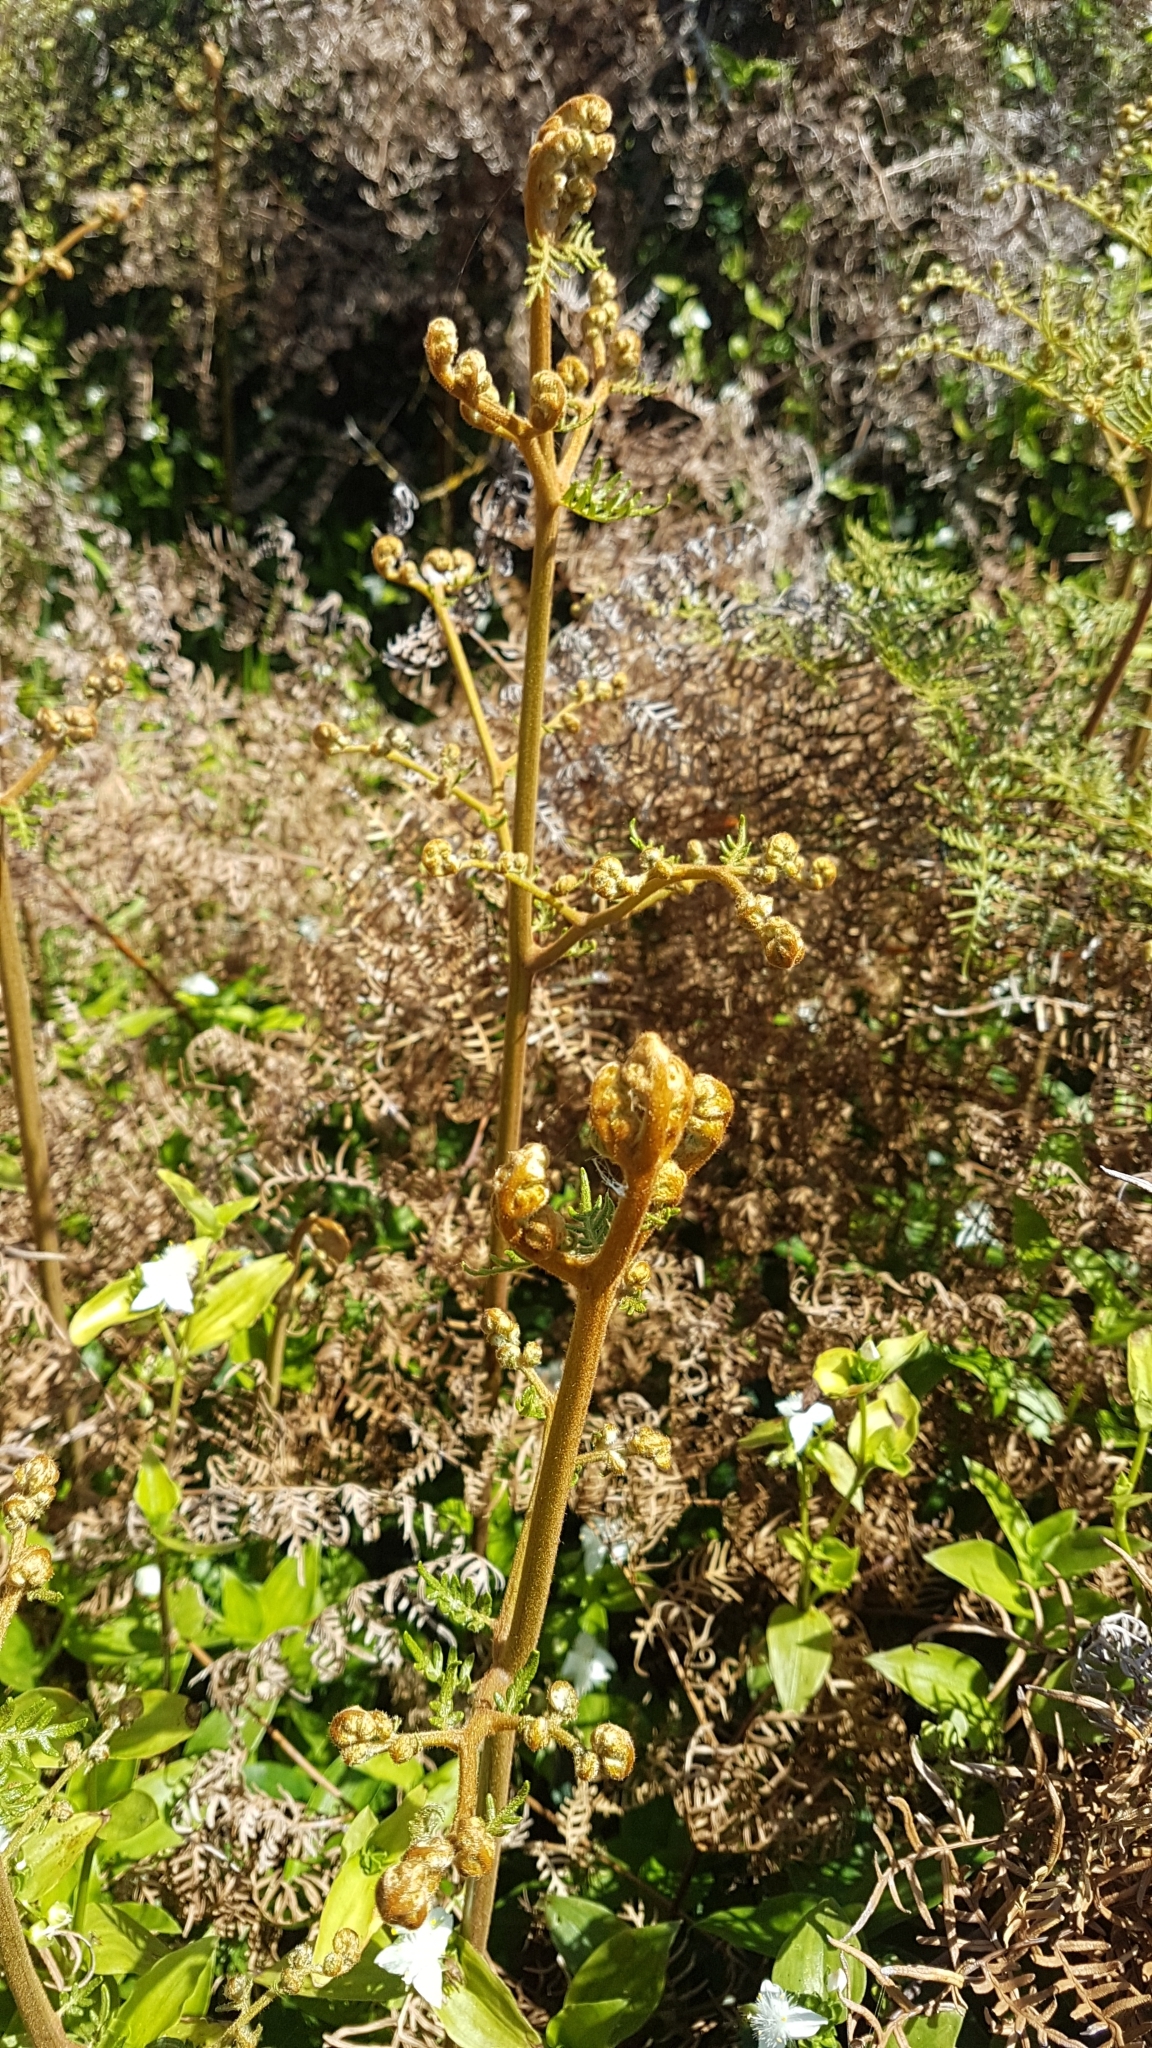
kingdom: Plantae
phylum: Tracheophyta
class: Polypodiopsida
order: Polypodiales
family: Dennstaedtiaceae
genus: Pteridium
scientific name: Pteridium esculentum
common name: Bracken fern
